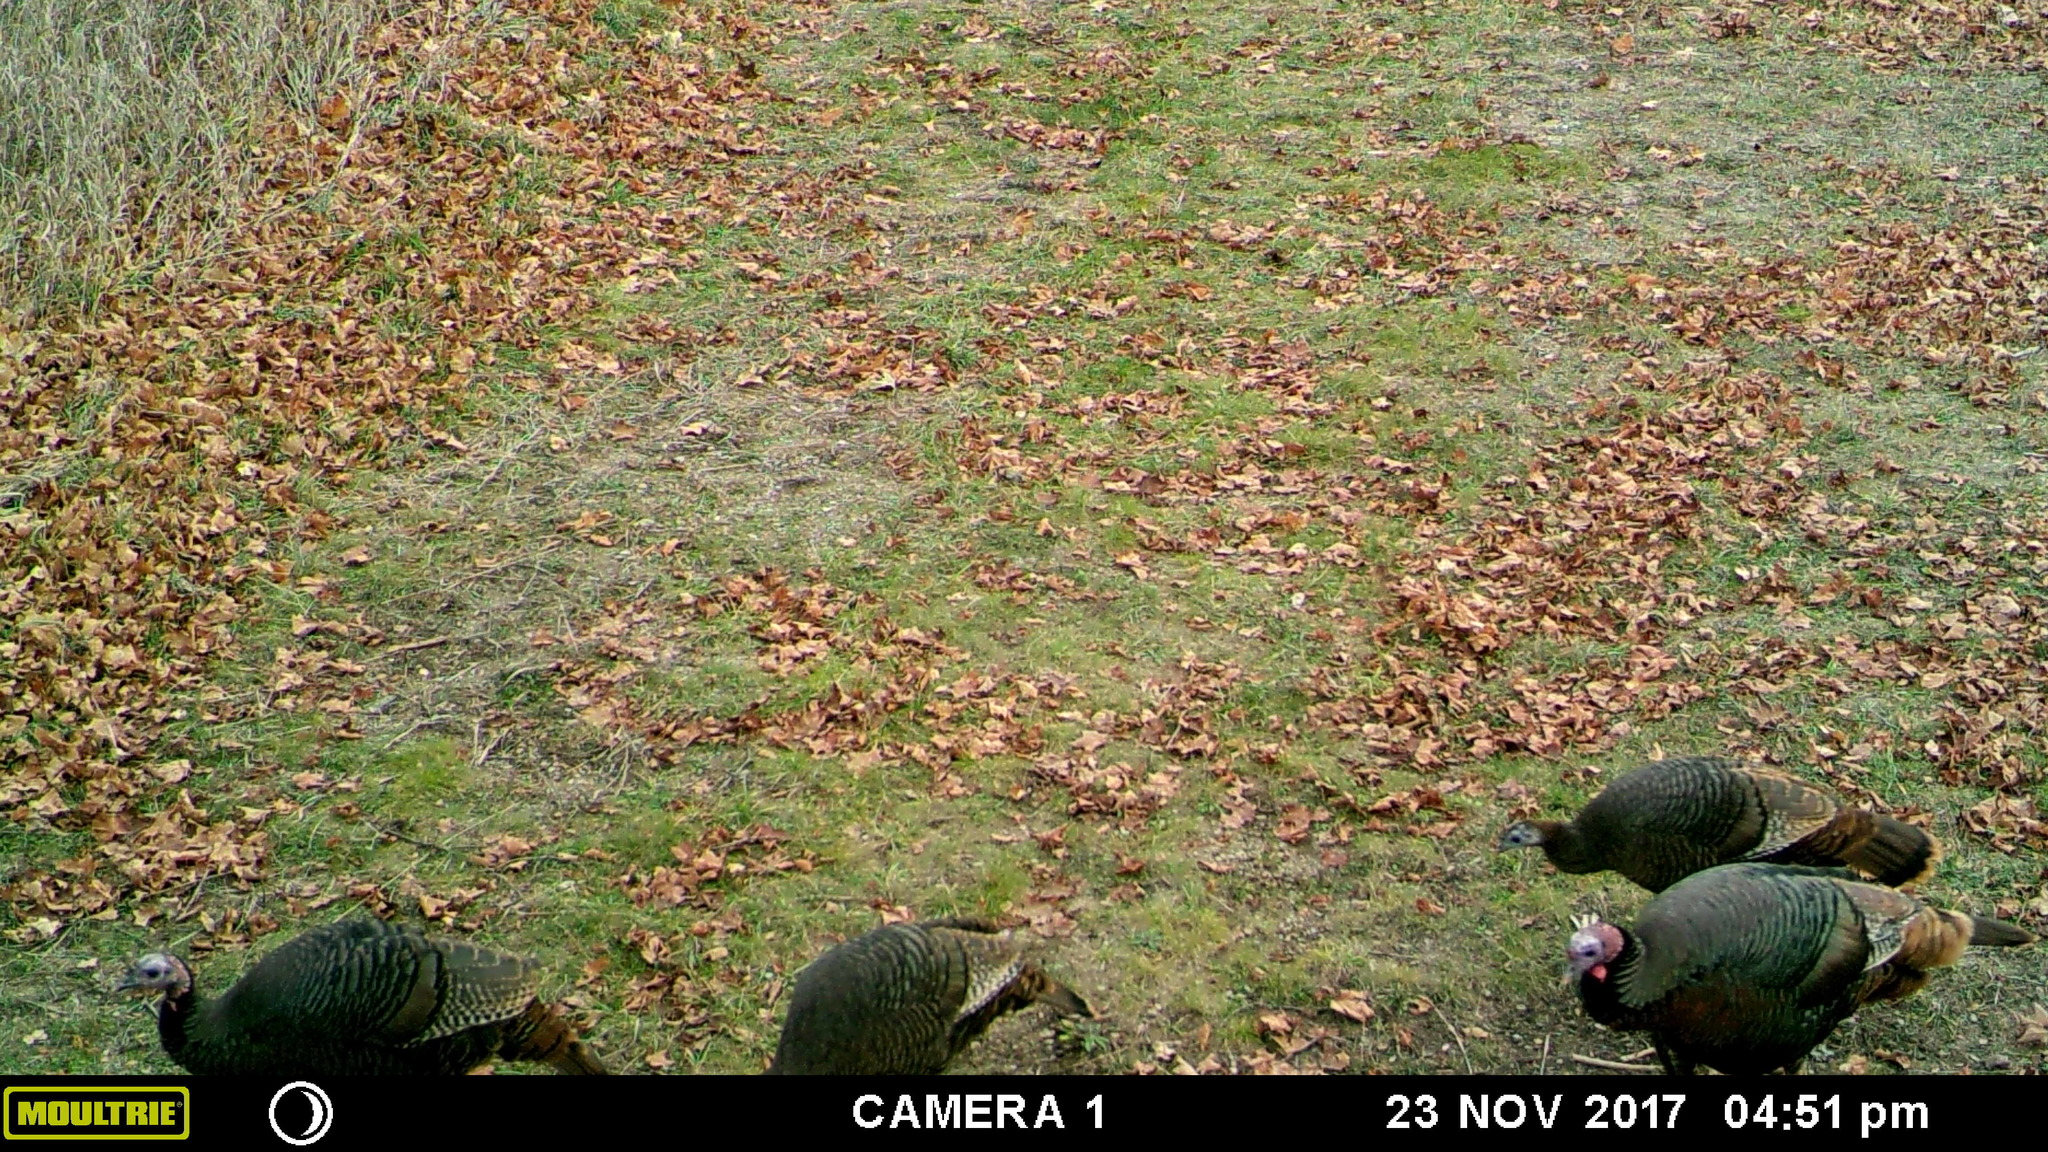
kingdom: Animalia
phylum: Chordata
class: Aves
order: Galliformes
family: Phasianidae
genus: Meleagris
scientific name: Meleagris gallopavo
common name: Wild turkey
